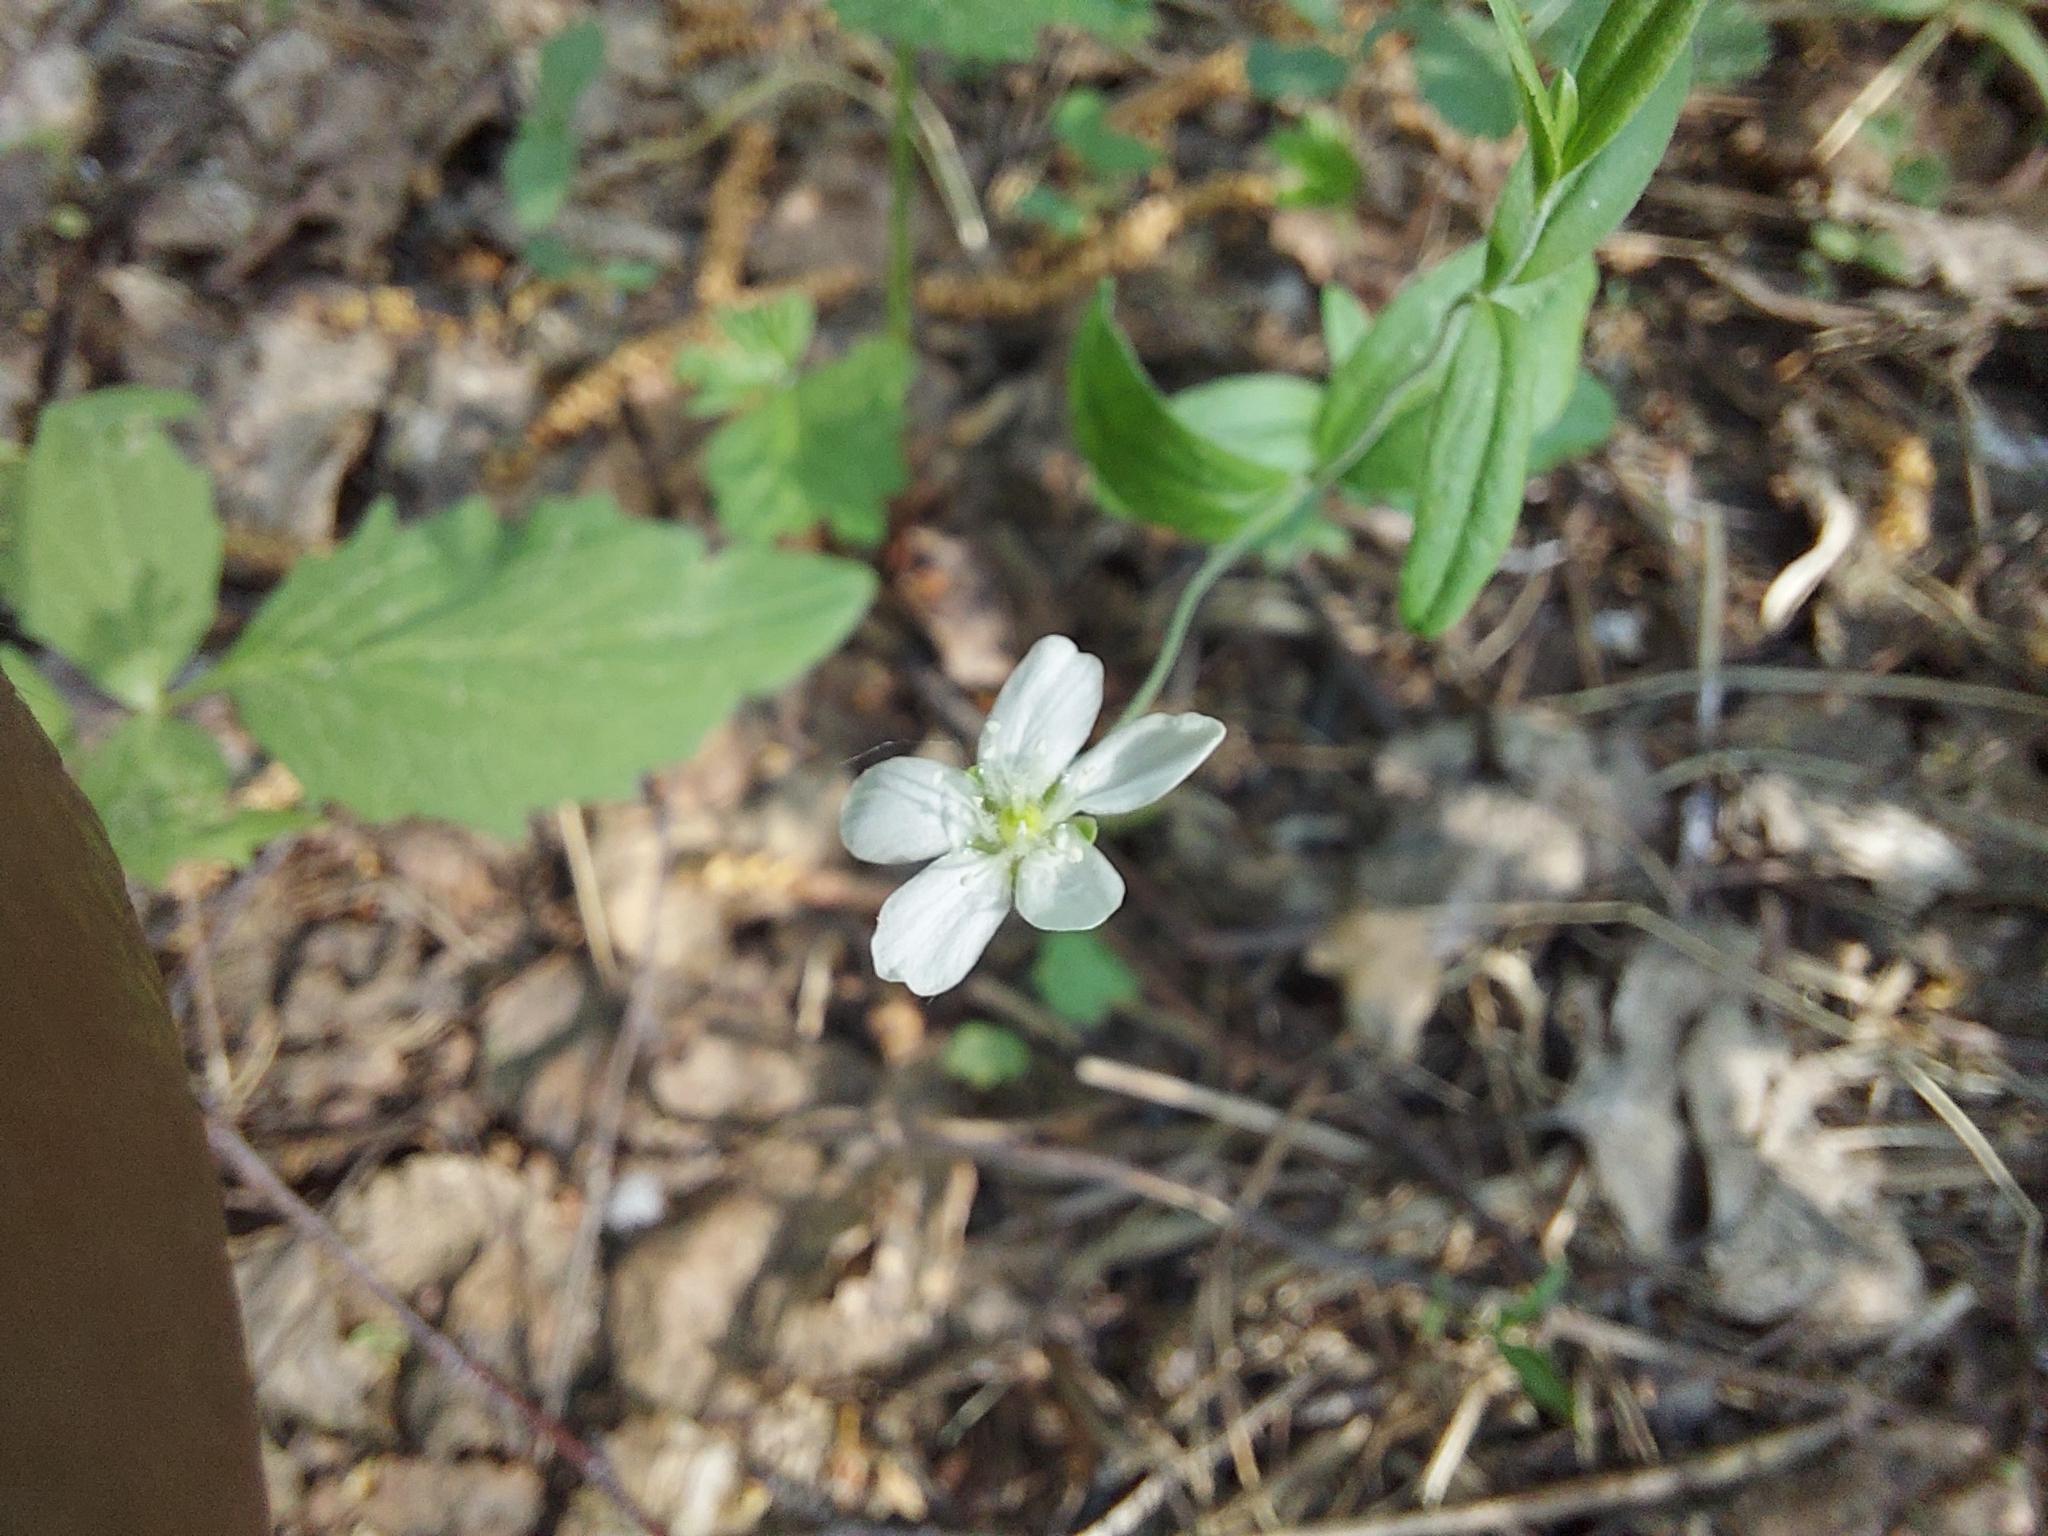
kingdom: Plantae
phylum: Tracheophyta
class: Magnoliopsida
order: Caryophyllales
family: Caryophyllaceae
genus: Moehringia
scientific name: Moehringia lateriflora
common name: Blunt-leaved sandwort
